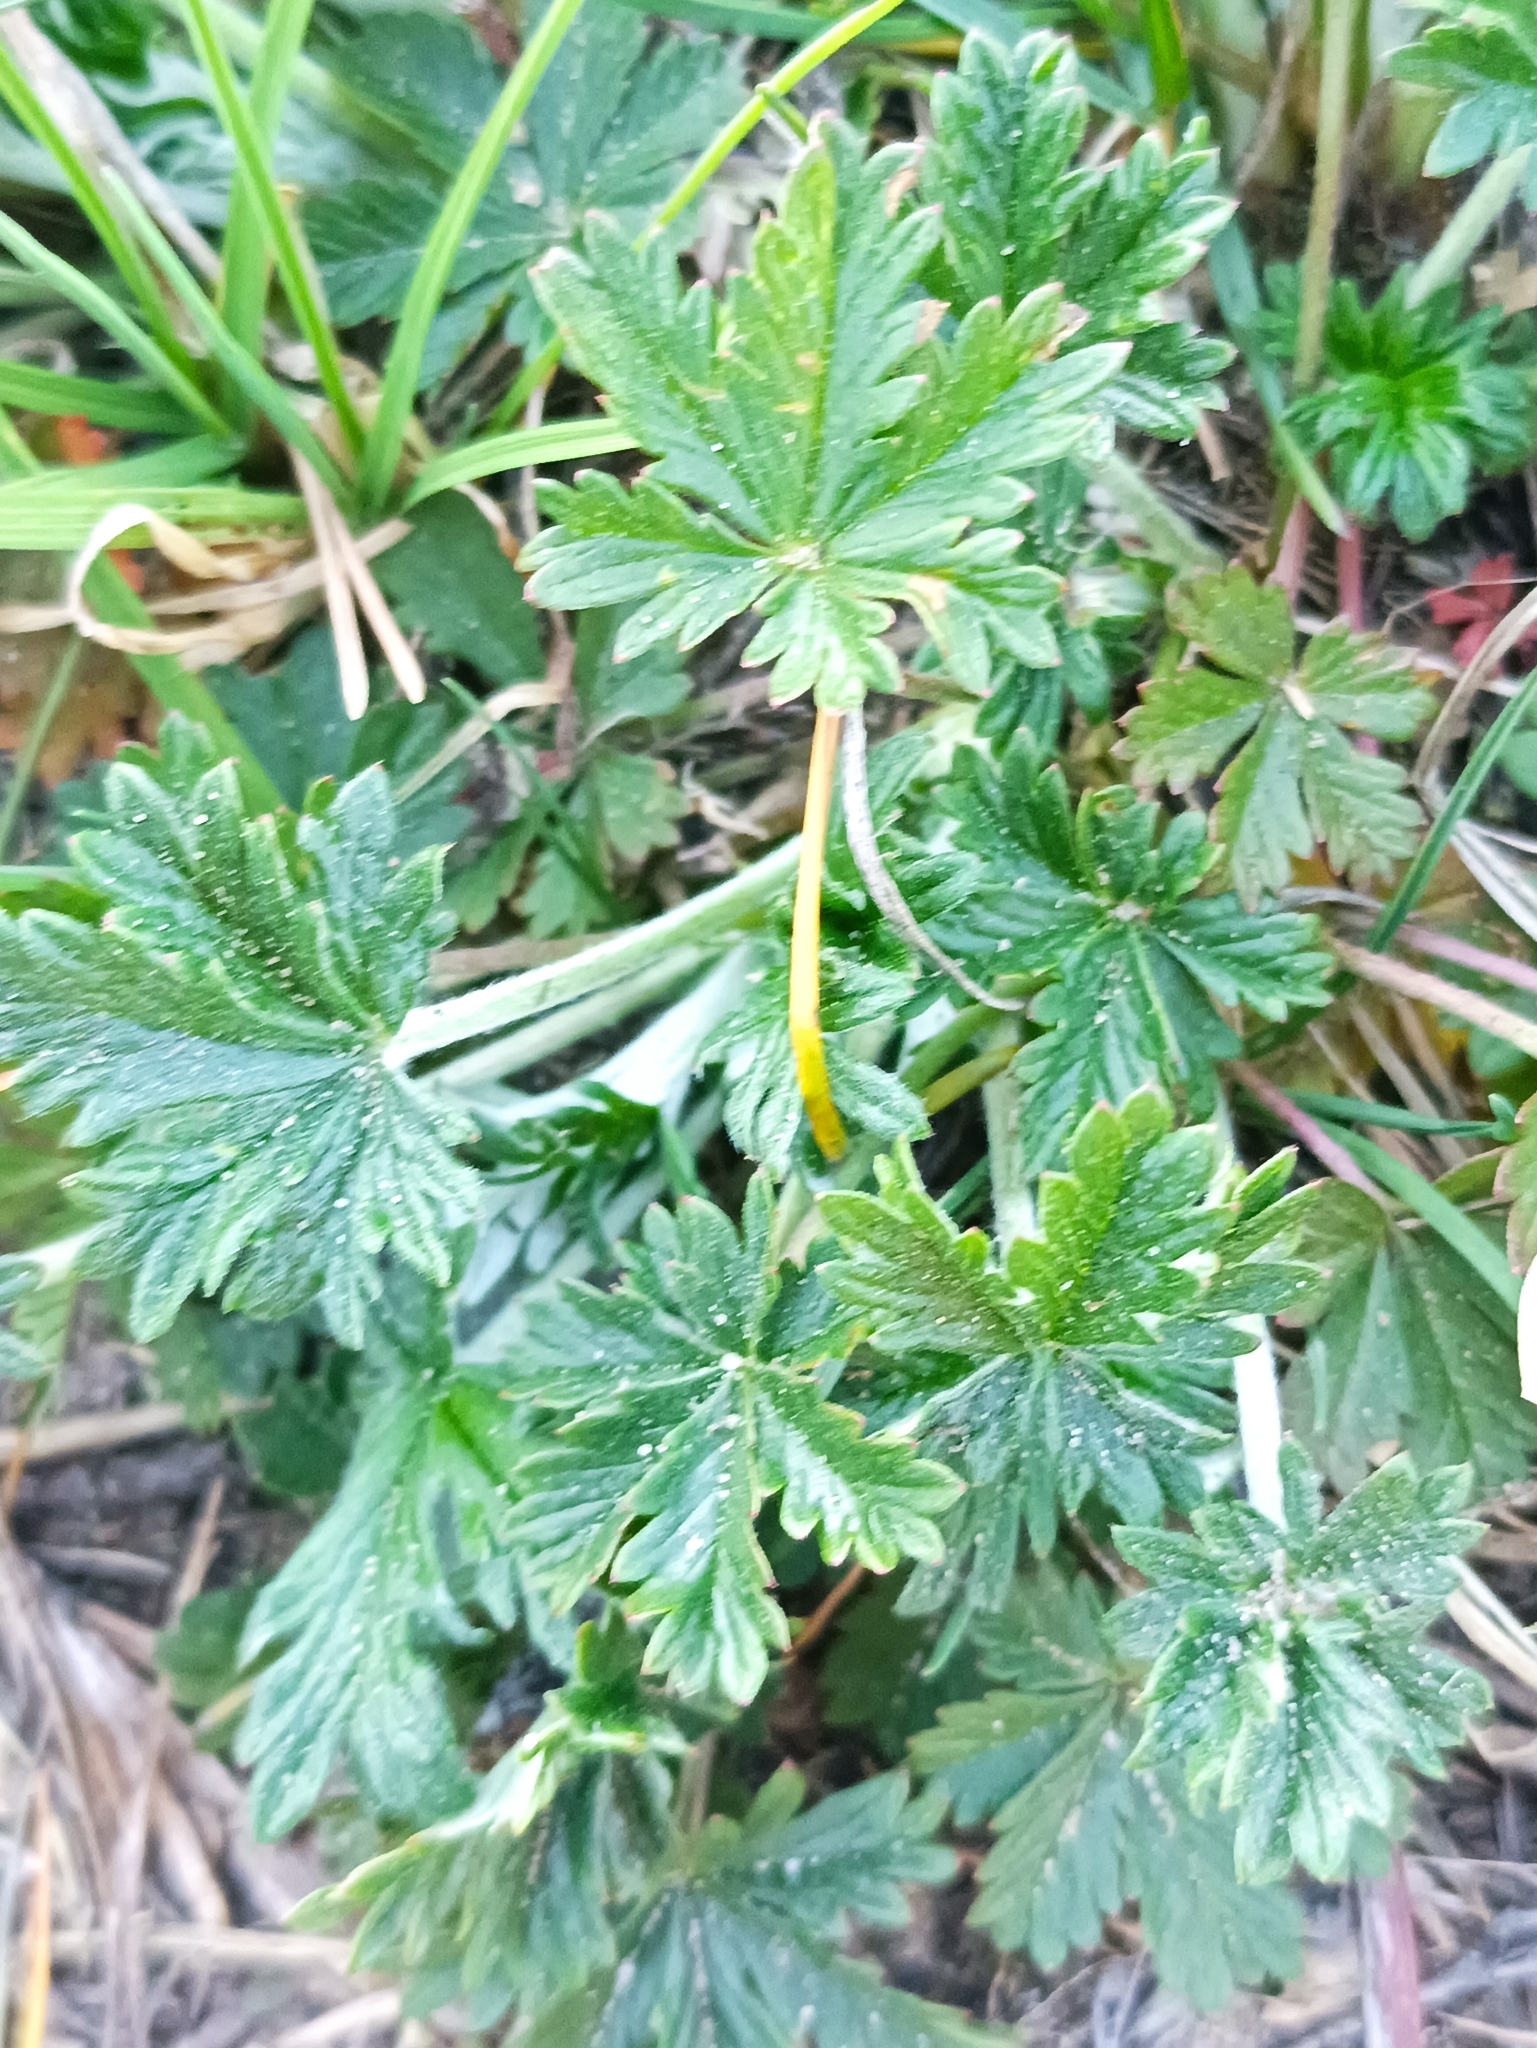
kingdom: Plantae
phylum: Tracheophyta
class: Magnoliopsida
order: Rosales
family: Rosaceae
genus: Potentilla
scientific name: Potentilla argentea
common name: Hoary cinquefoil
